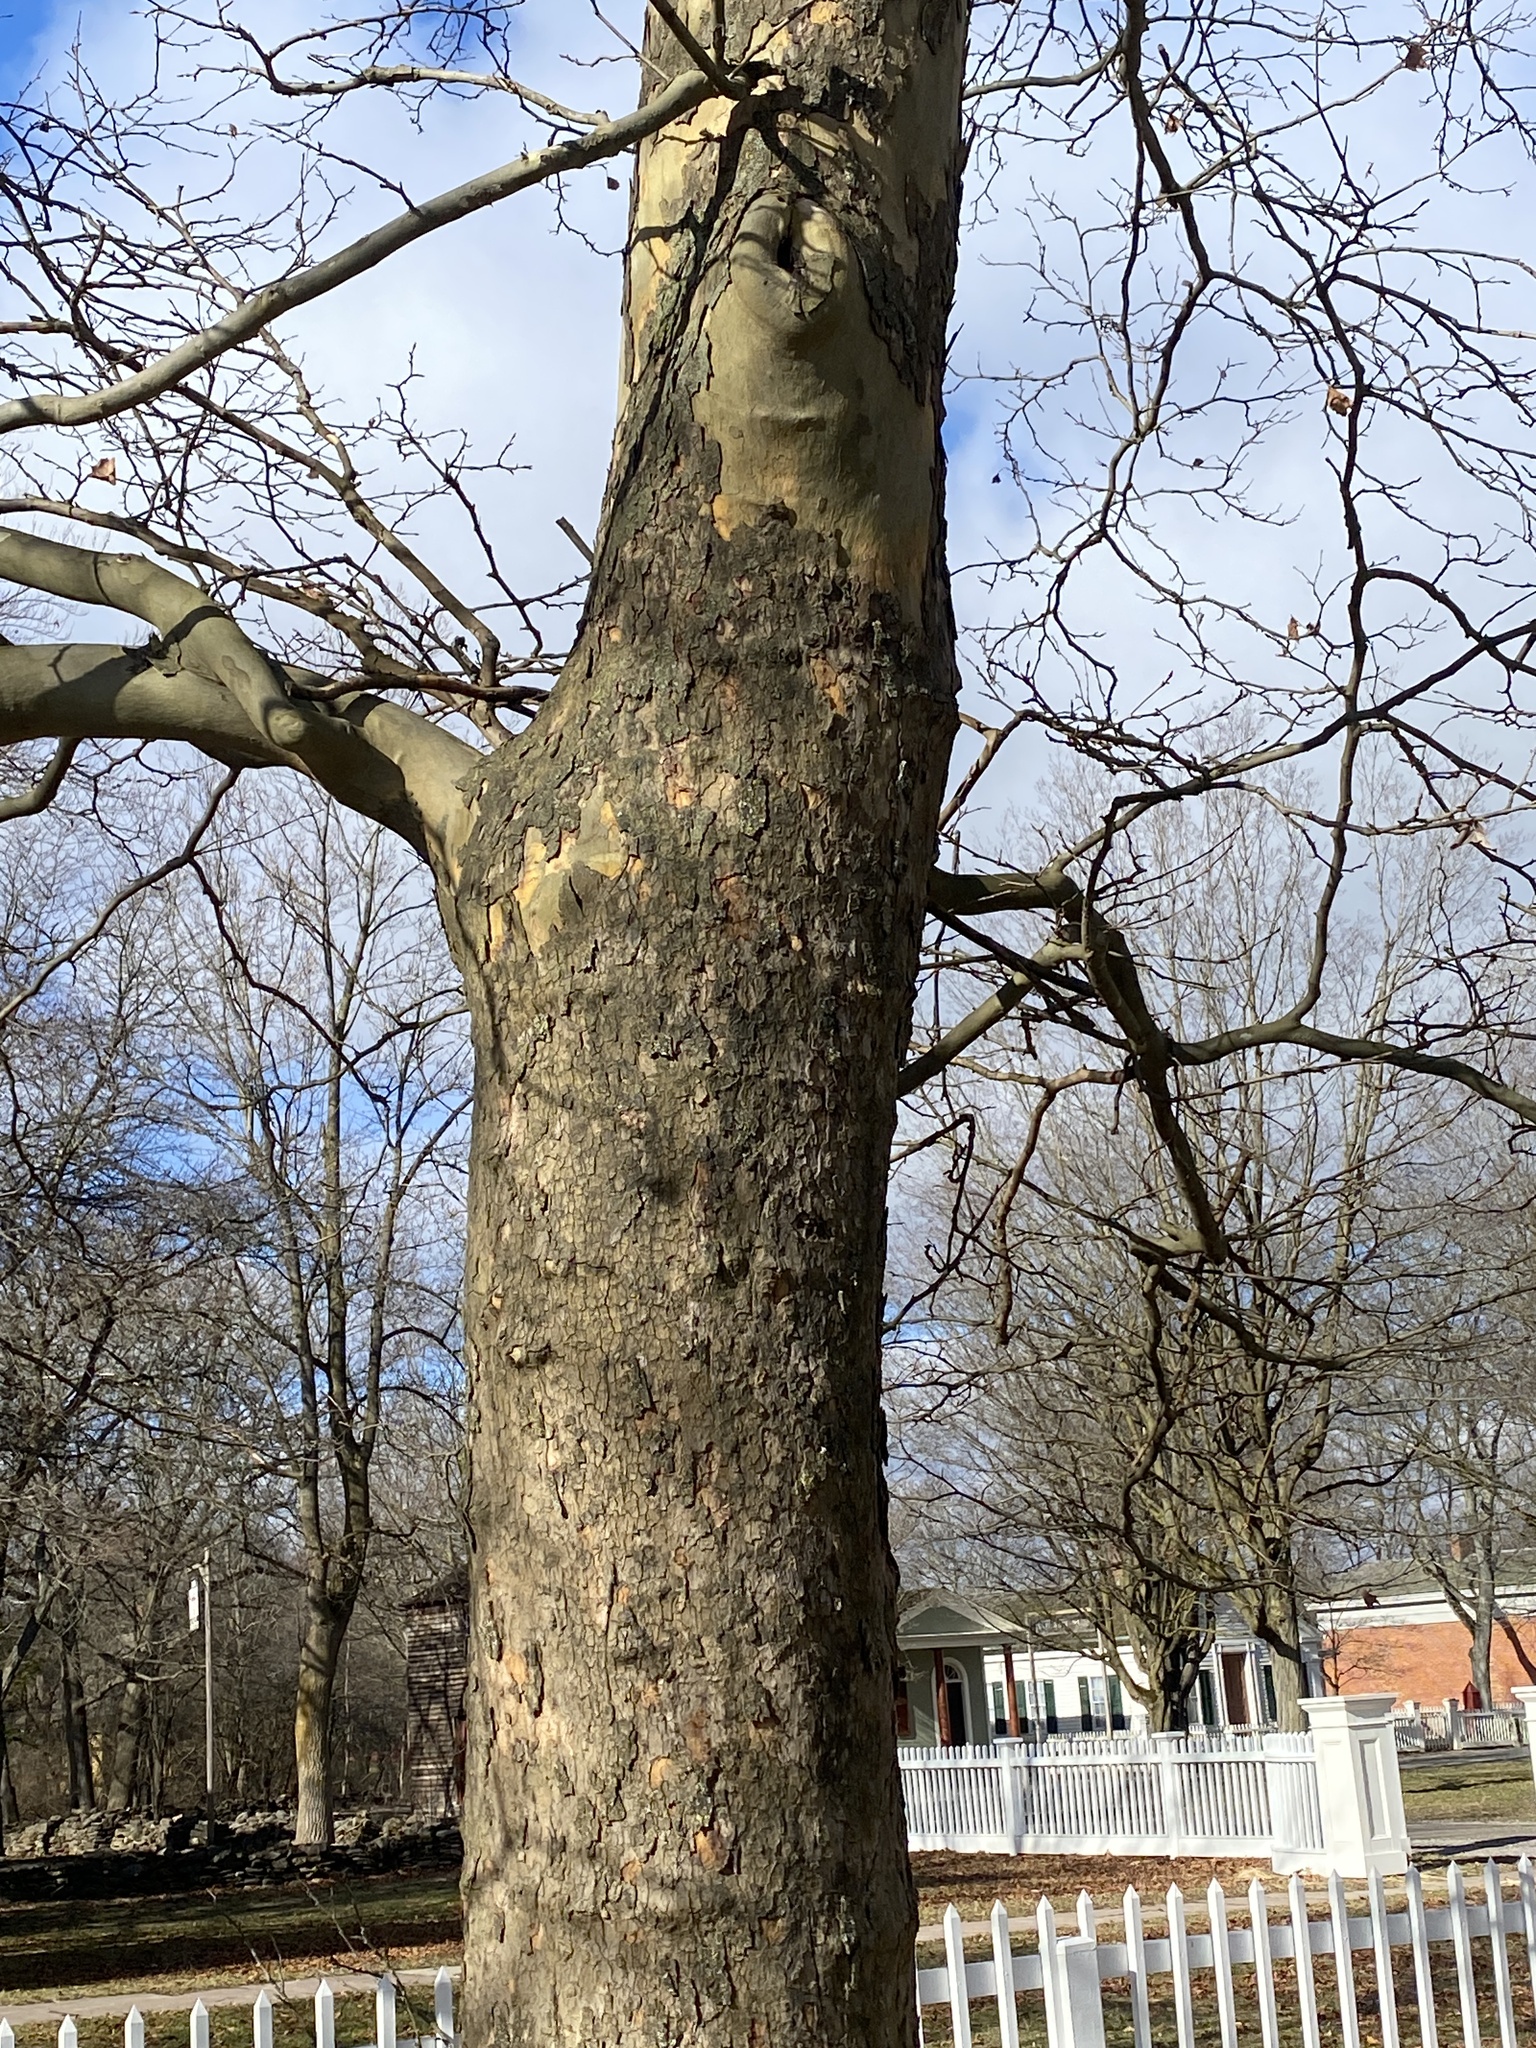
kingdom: Plantae
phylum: Tracheophyta
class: Magnoliopsida
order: Proteales
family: Platanaceae
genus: Platanus
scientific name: Platanus occidentalis
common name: American sycamore
